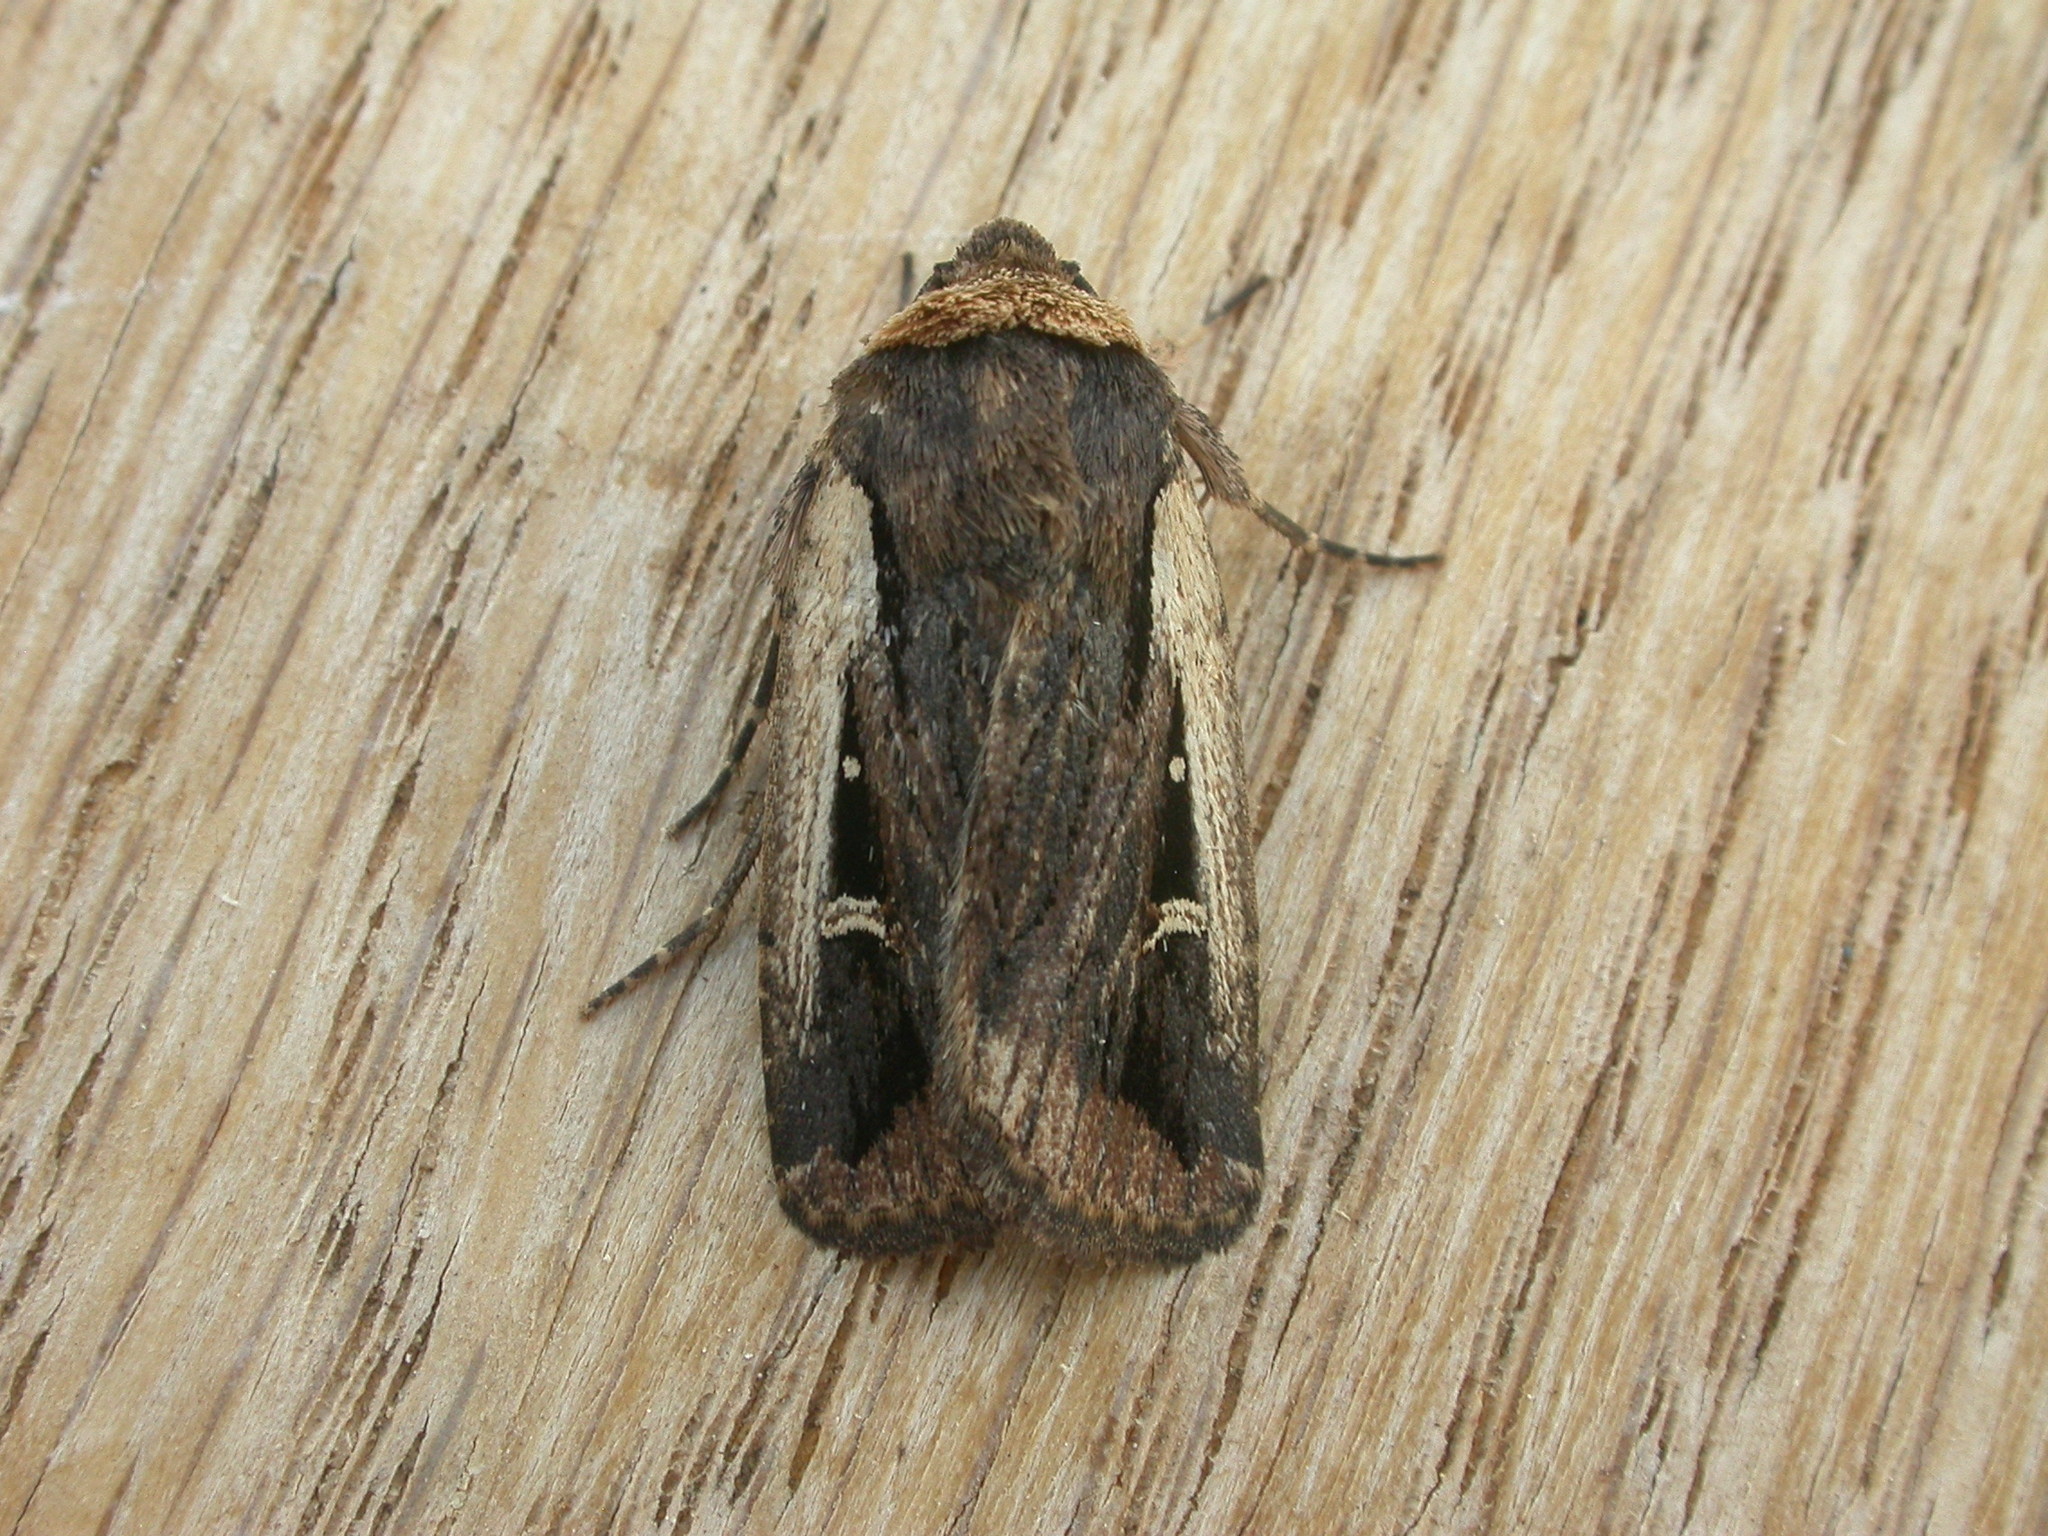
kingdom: Animalia
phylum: Arthropoda
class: Insecta
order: Lepidoptera
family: Noctuidae
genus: Proteuxoa
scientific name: Proteuxoa tortisigna
